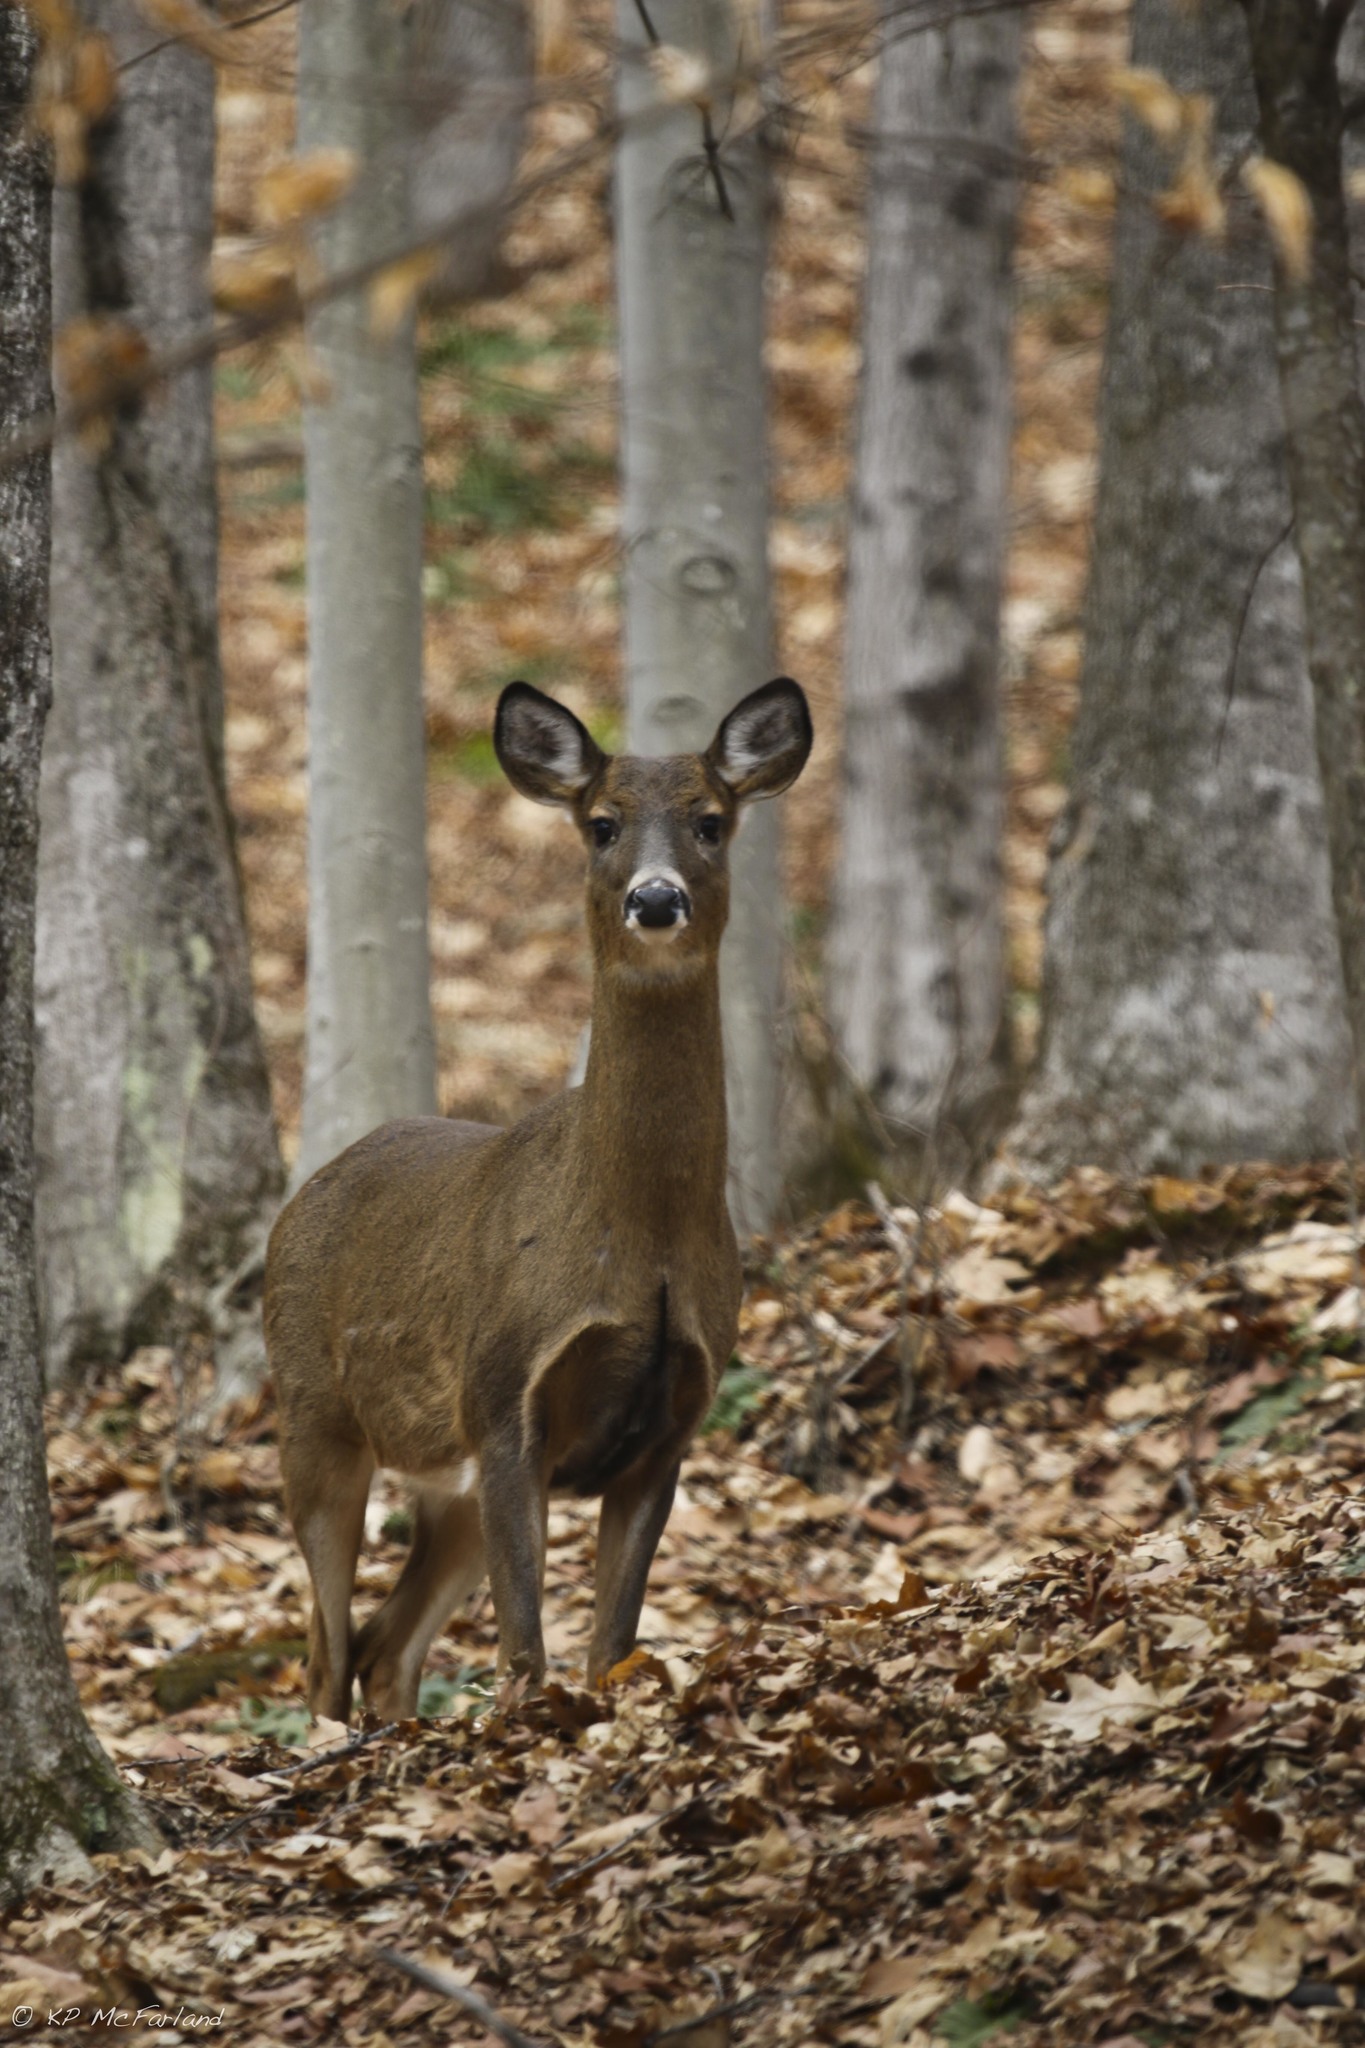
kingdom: Animalia
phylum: Chordata
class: Mammalia
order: Artiodactyla
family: Cervidae
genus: Odocoileus
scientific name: Odocoileus virginianus
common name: White-tailed deer
